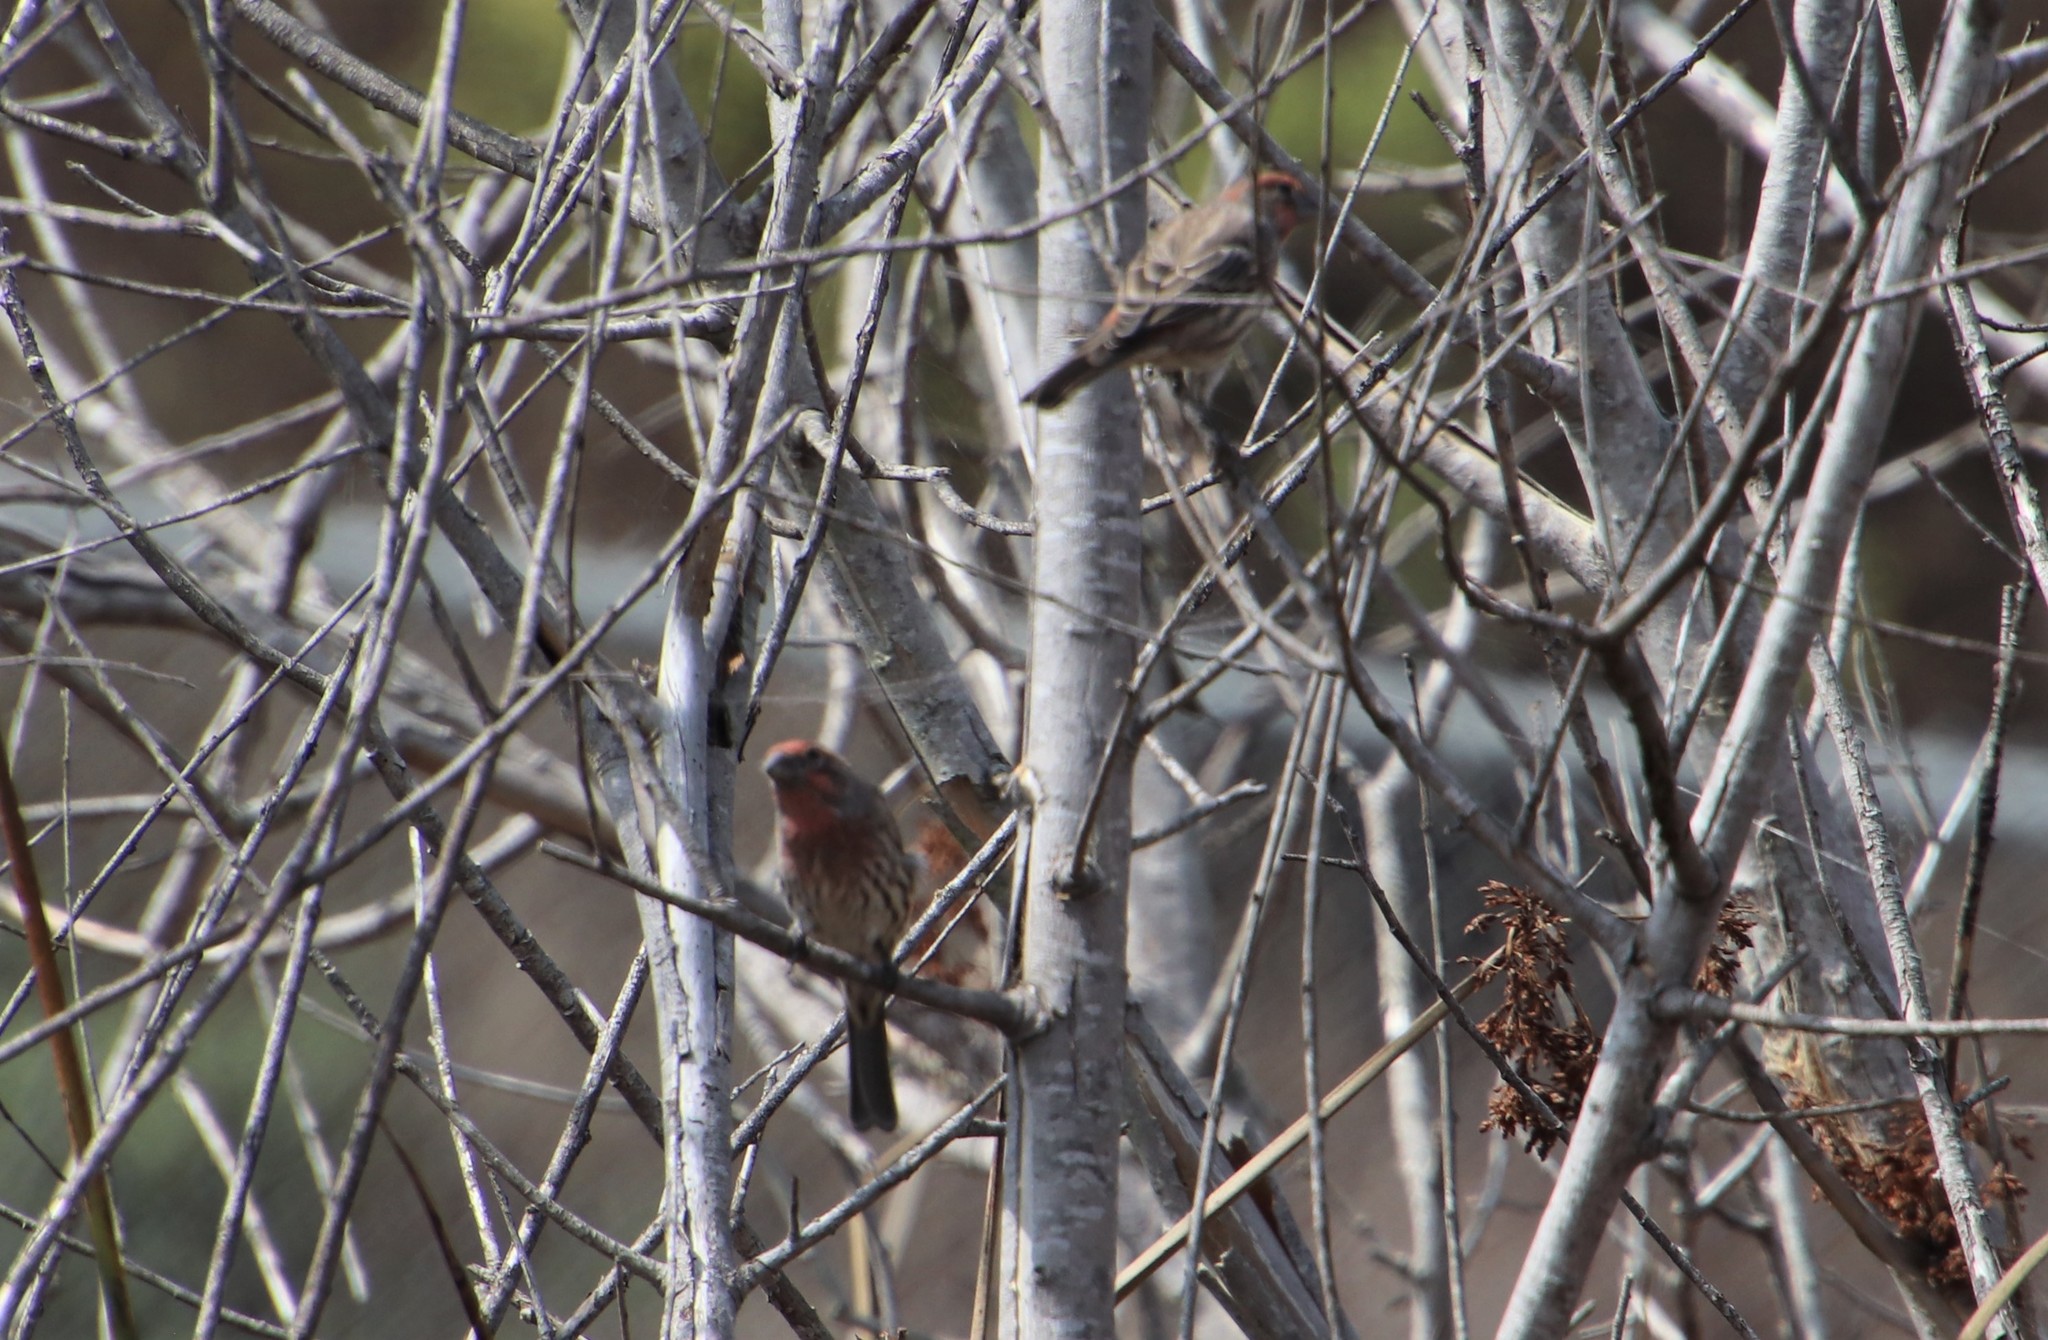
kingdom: Animalia
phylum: Chordata
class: Aves
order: Passeriformes
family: Fringillidae
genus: Haemorhous
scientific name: Haemorhous mexicanus
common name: House finch
